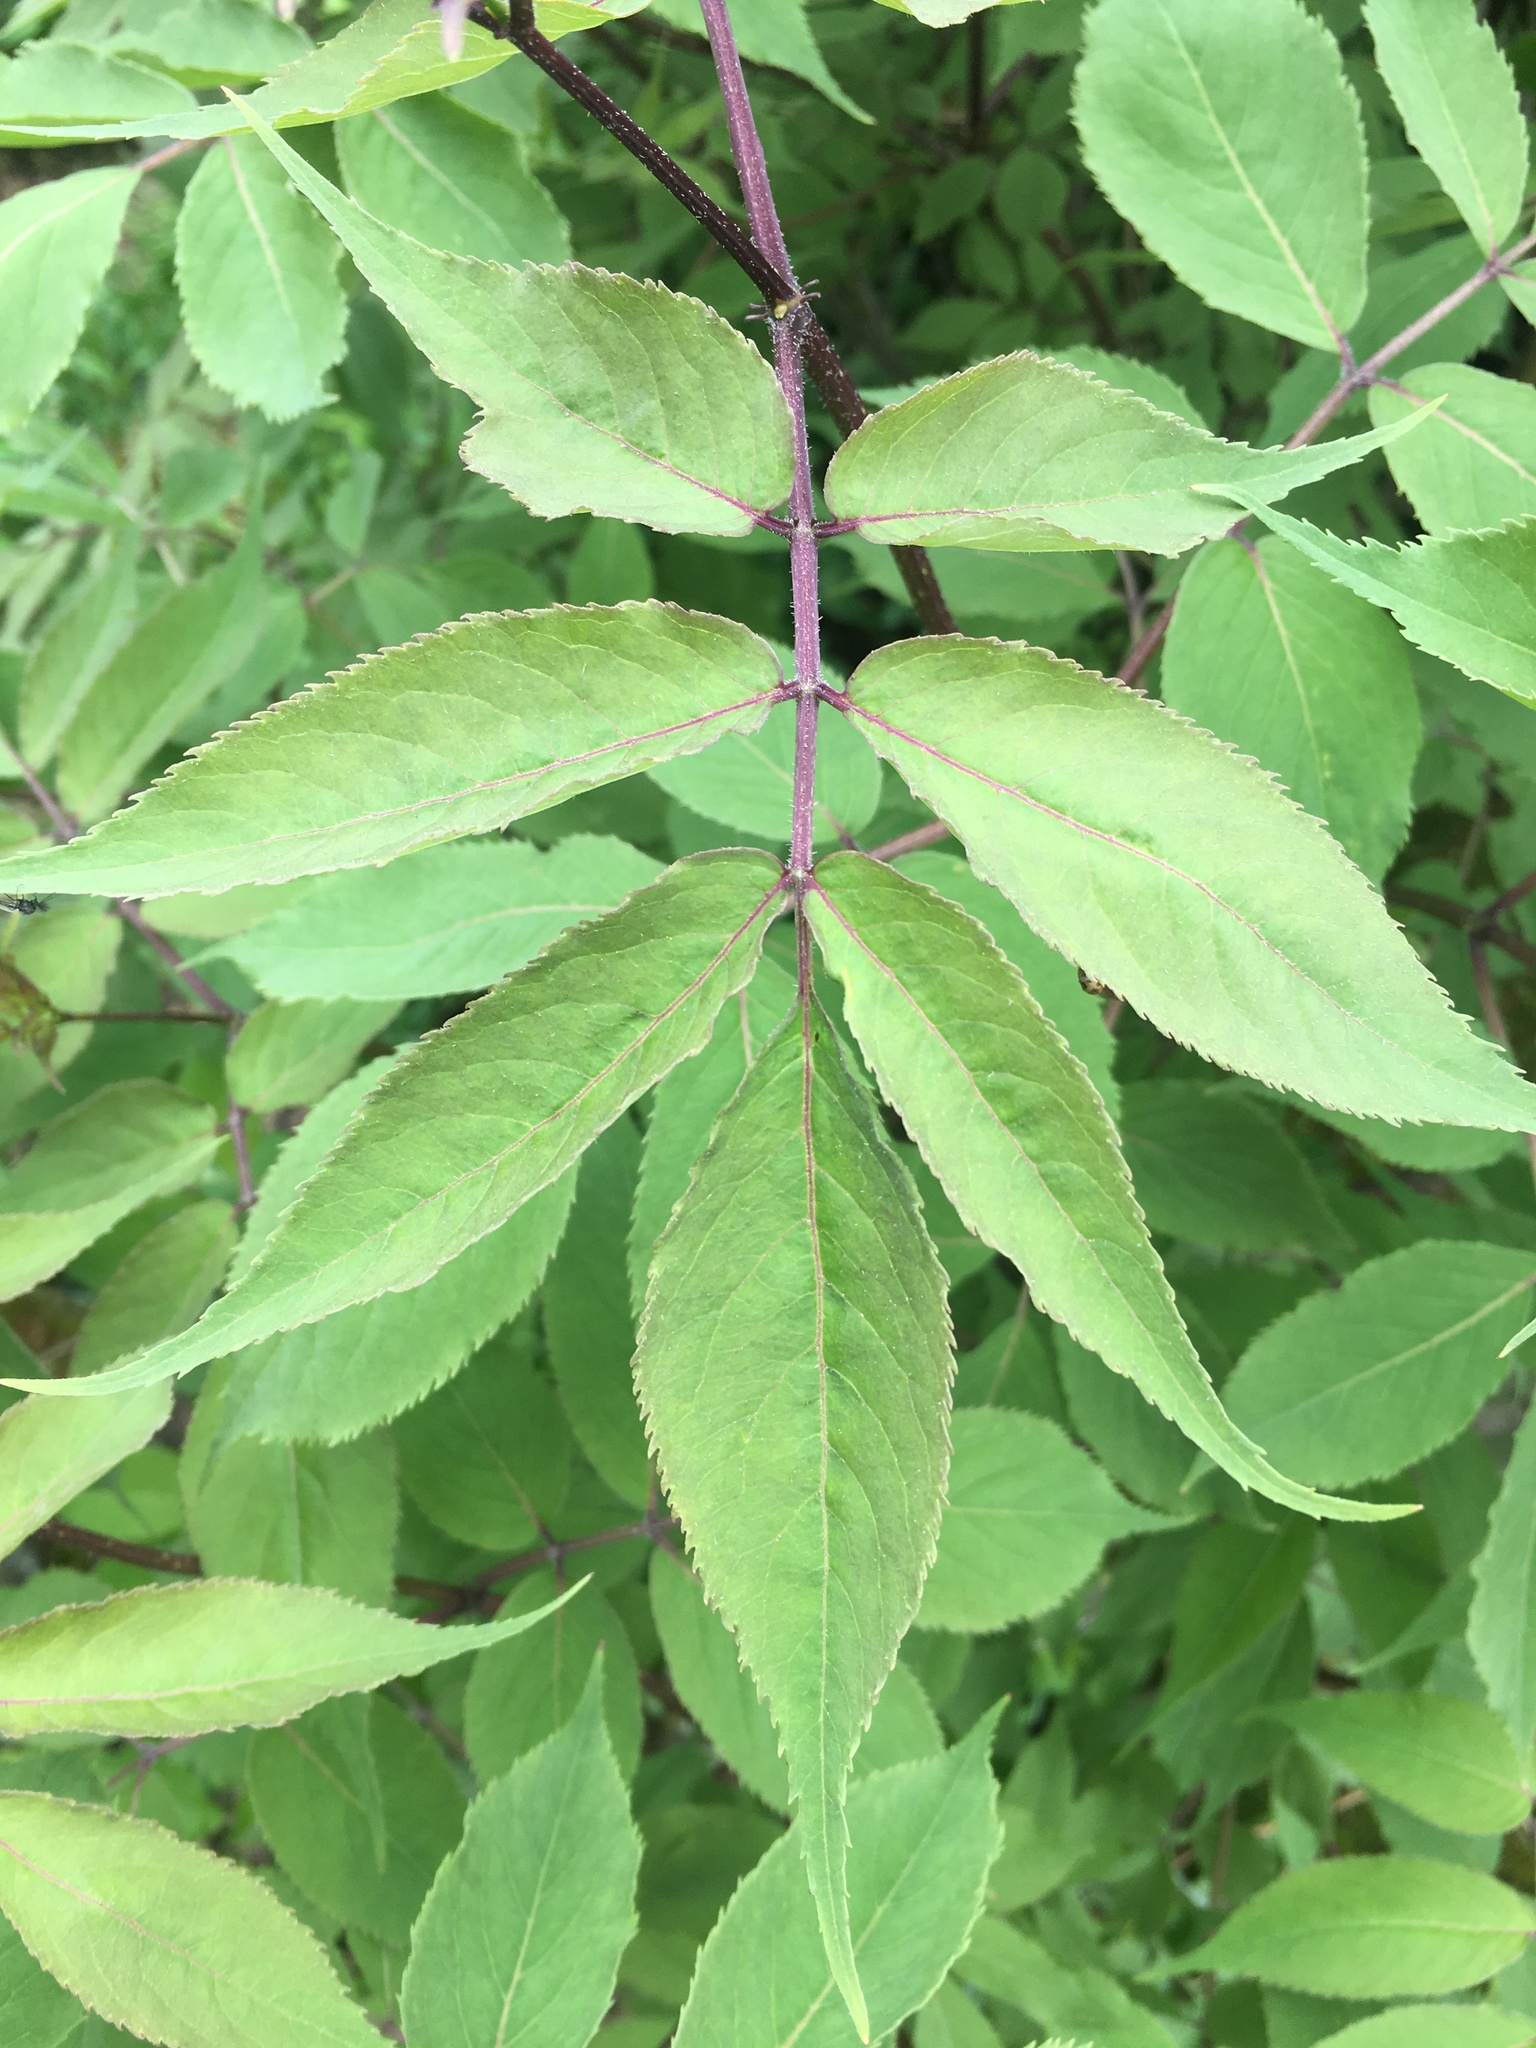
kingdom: Plantae
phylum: Tracheophyta
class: Magnoliopsida
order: Dipsacales
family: Viburnaceae
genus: Sambucus
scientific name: Sambucus racemosa
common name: Red-berried elder
